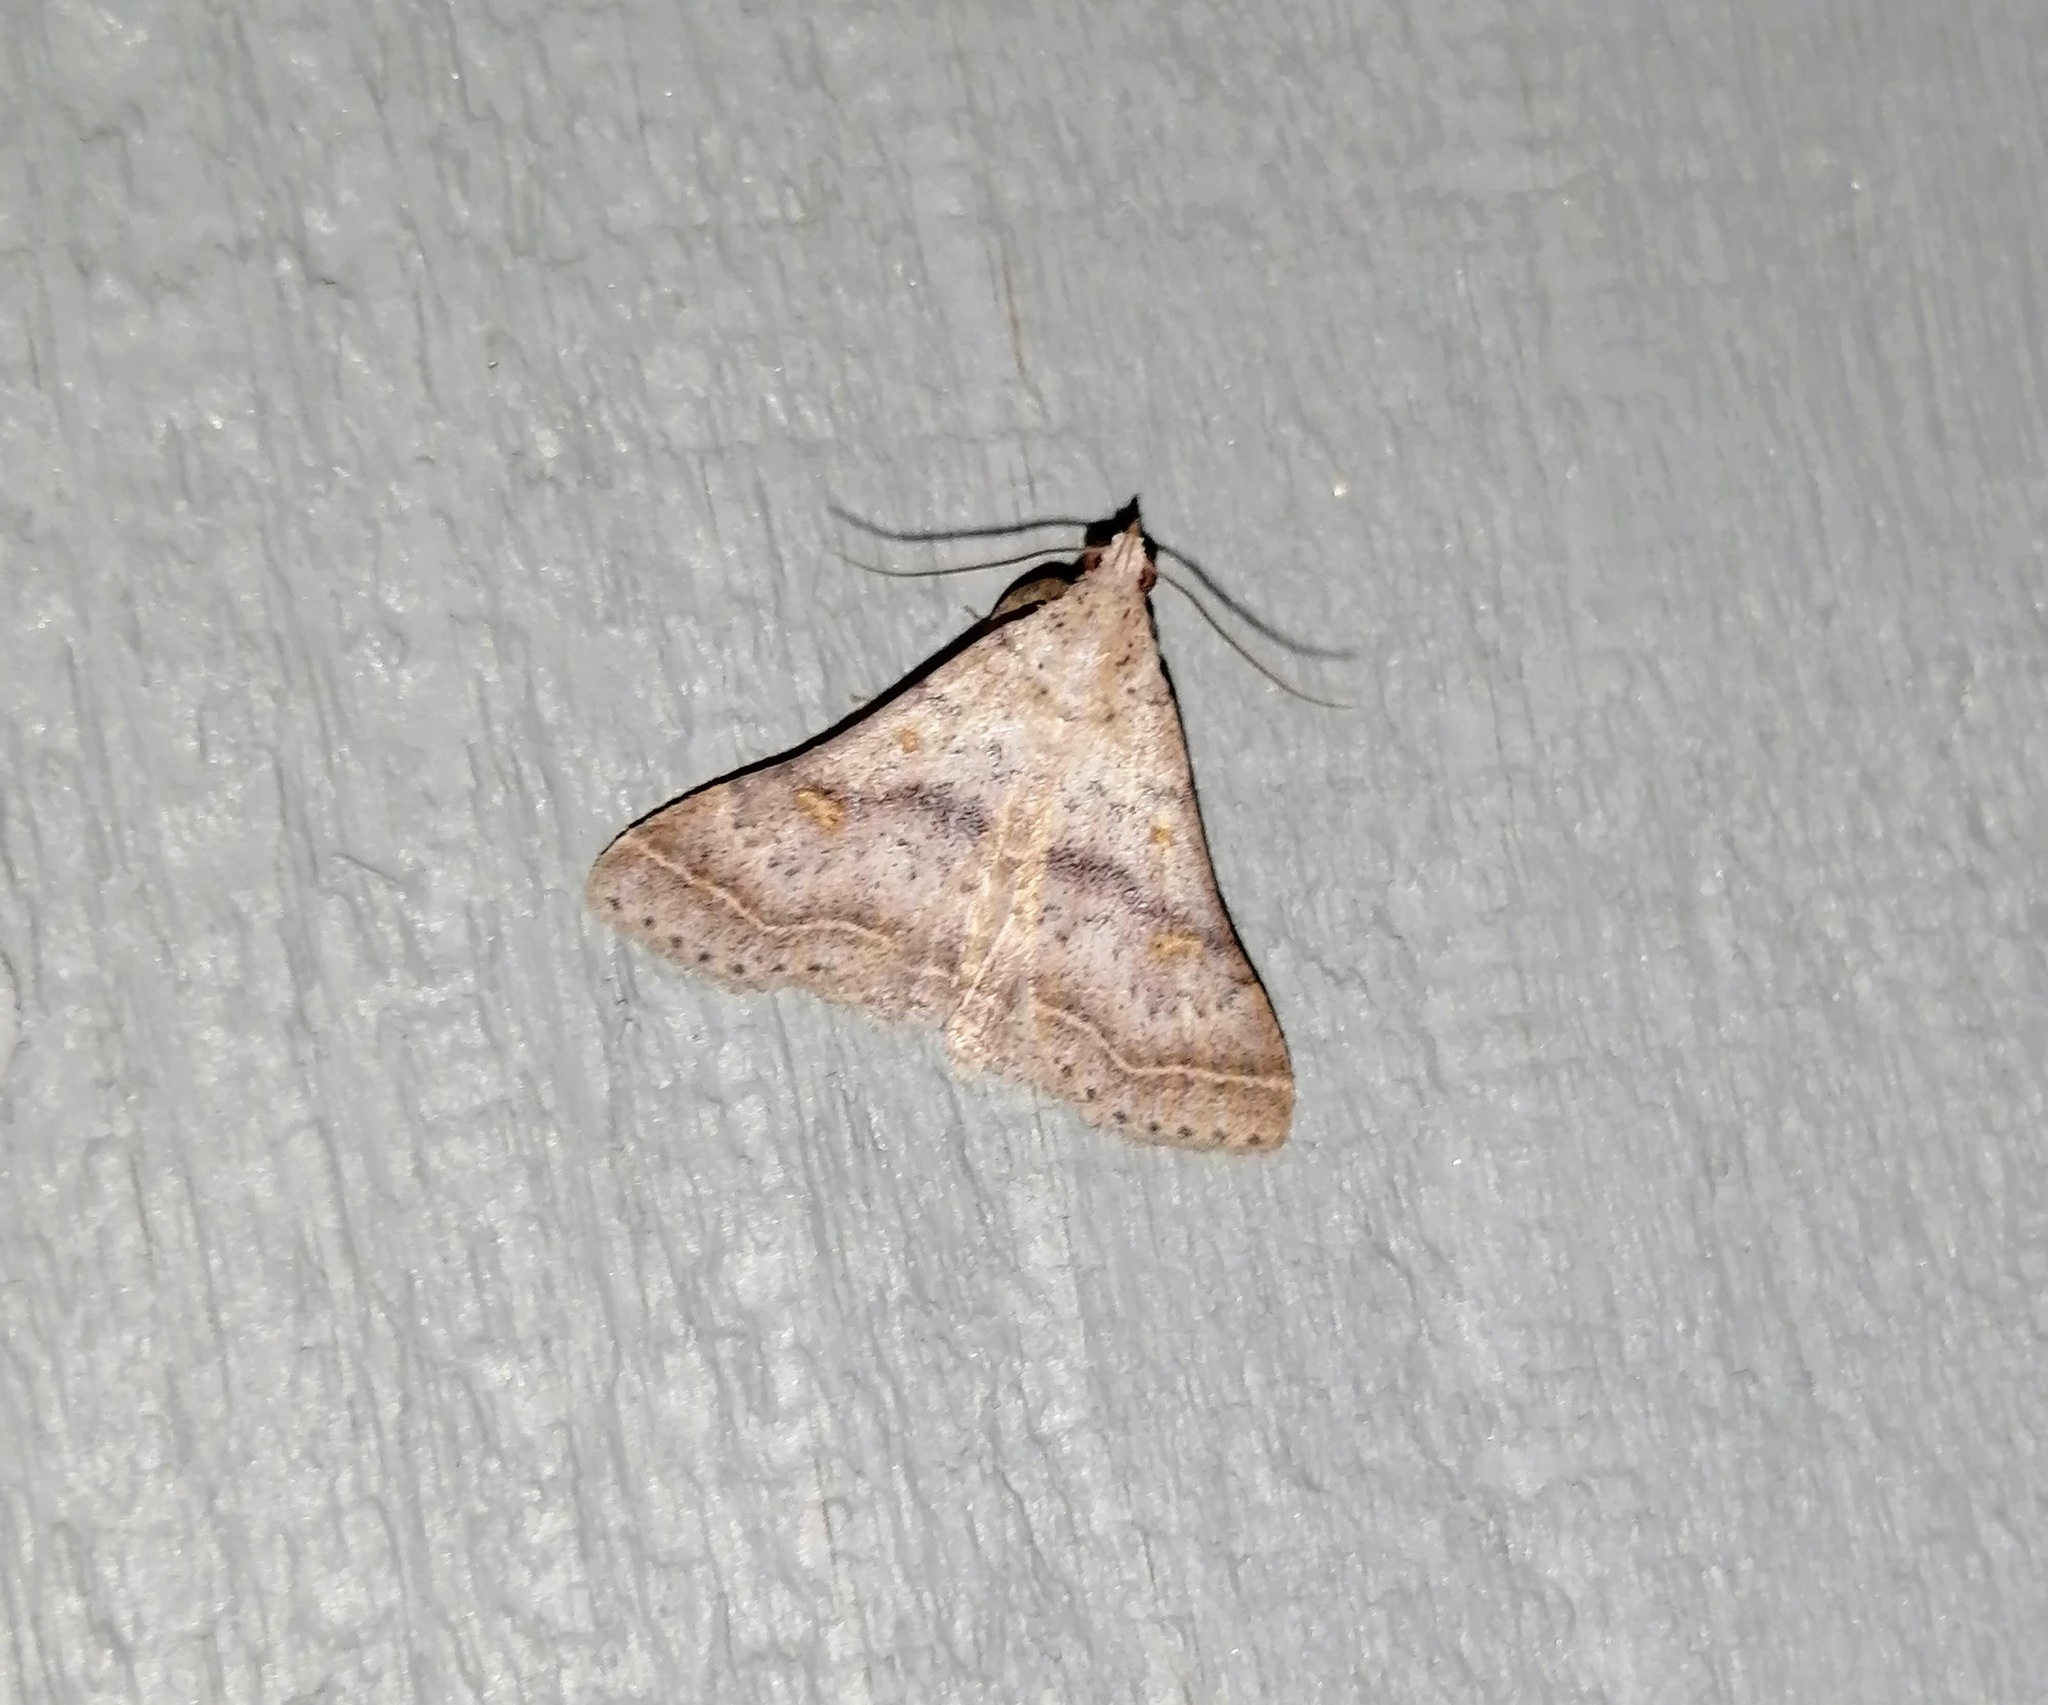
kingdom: Animalia
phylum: Arthropoda
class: Insecta
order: Lepidoptera
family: Erebidae
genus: Bleptina
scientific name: Bleptina caradrinalis
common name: Bent-winged owlet
